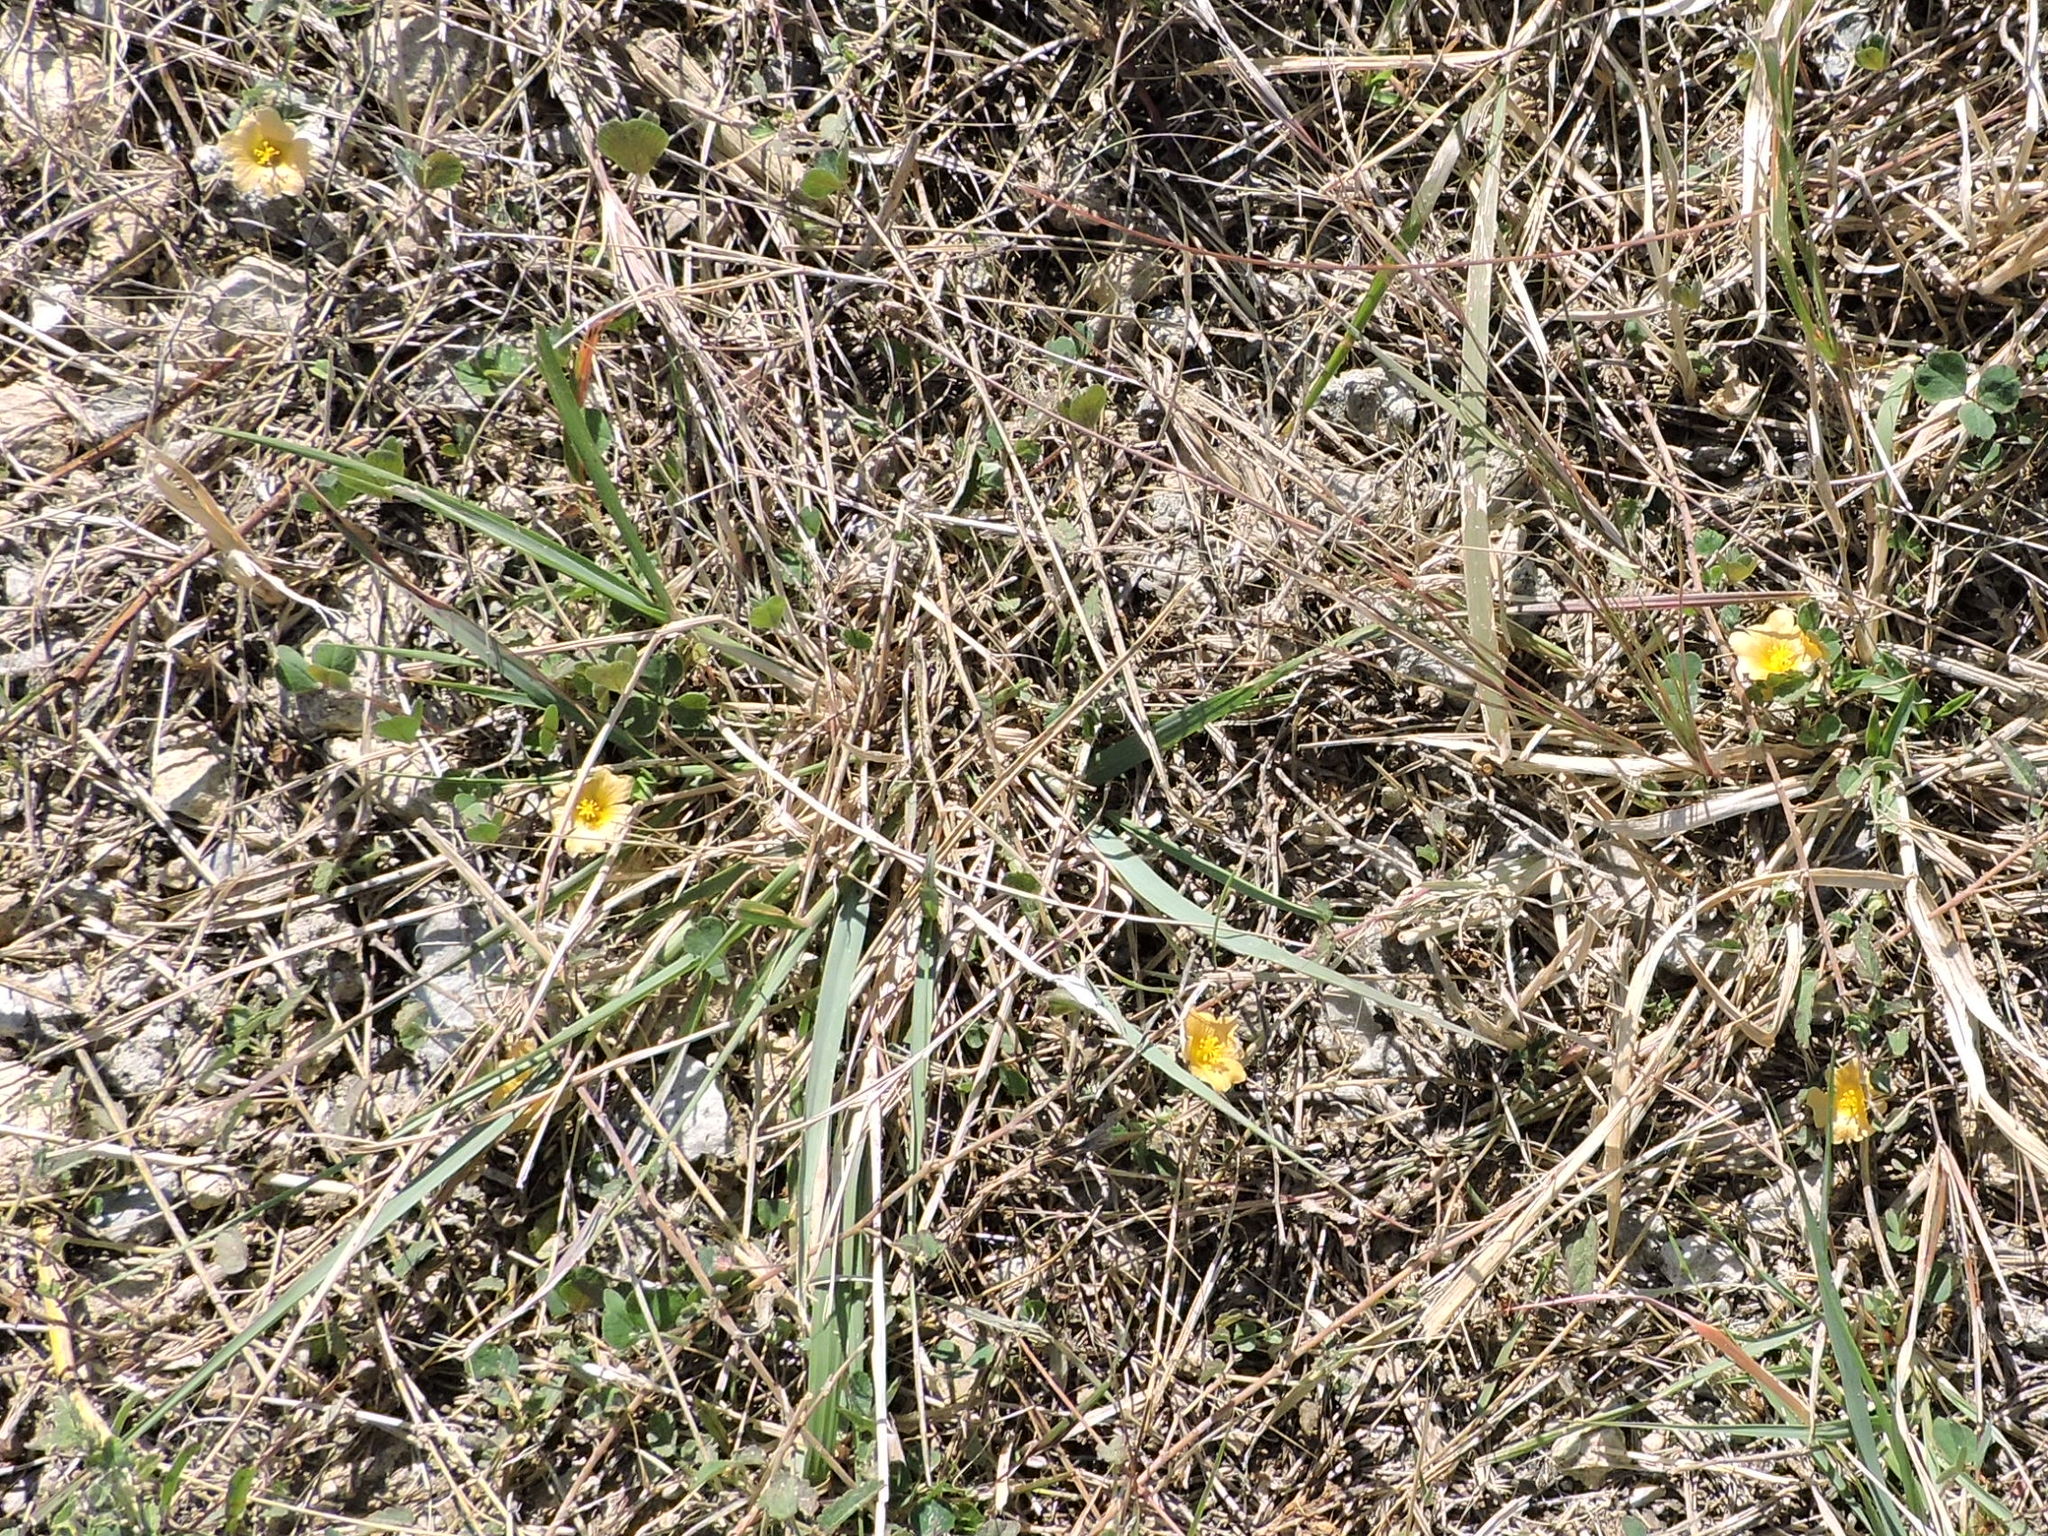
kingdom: Plantae
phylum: Tracheophyta
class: Magnoliopsida
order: Malvales
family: Malvaceae
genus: Sida
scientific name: Sida abutilifolia
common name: Spreading fanpetals
